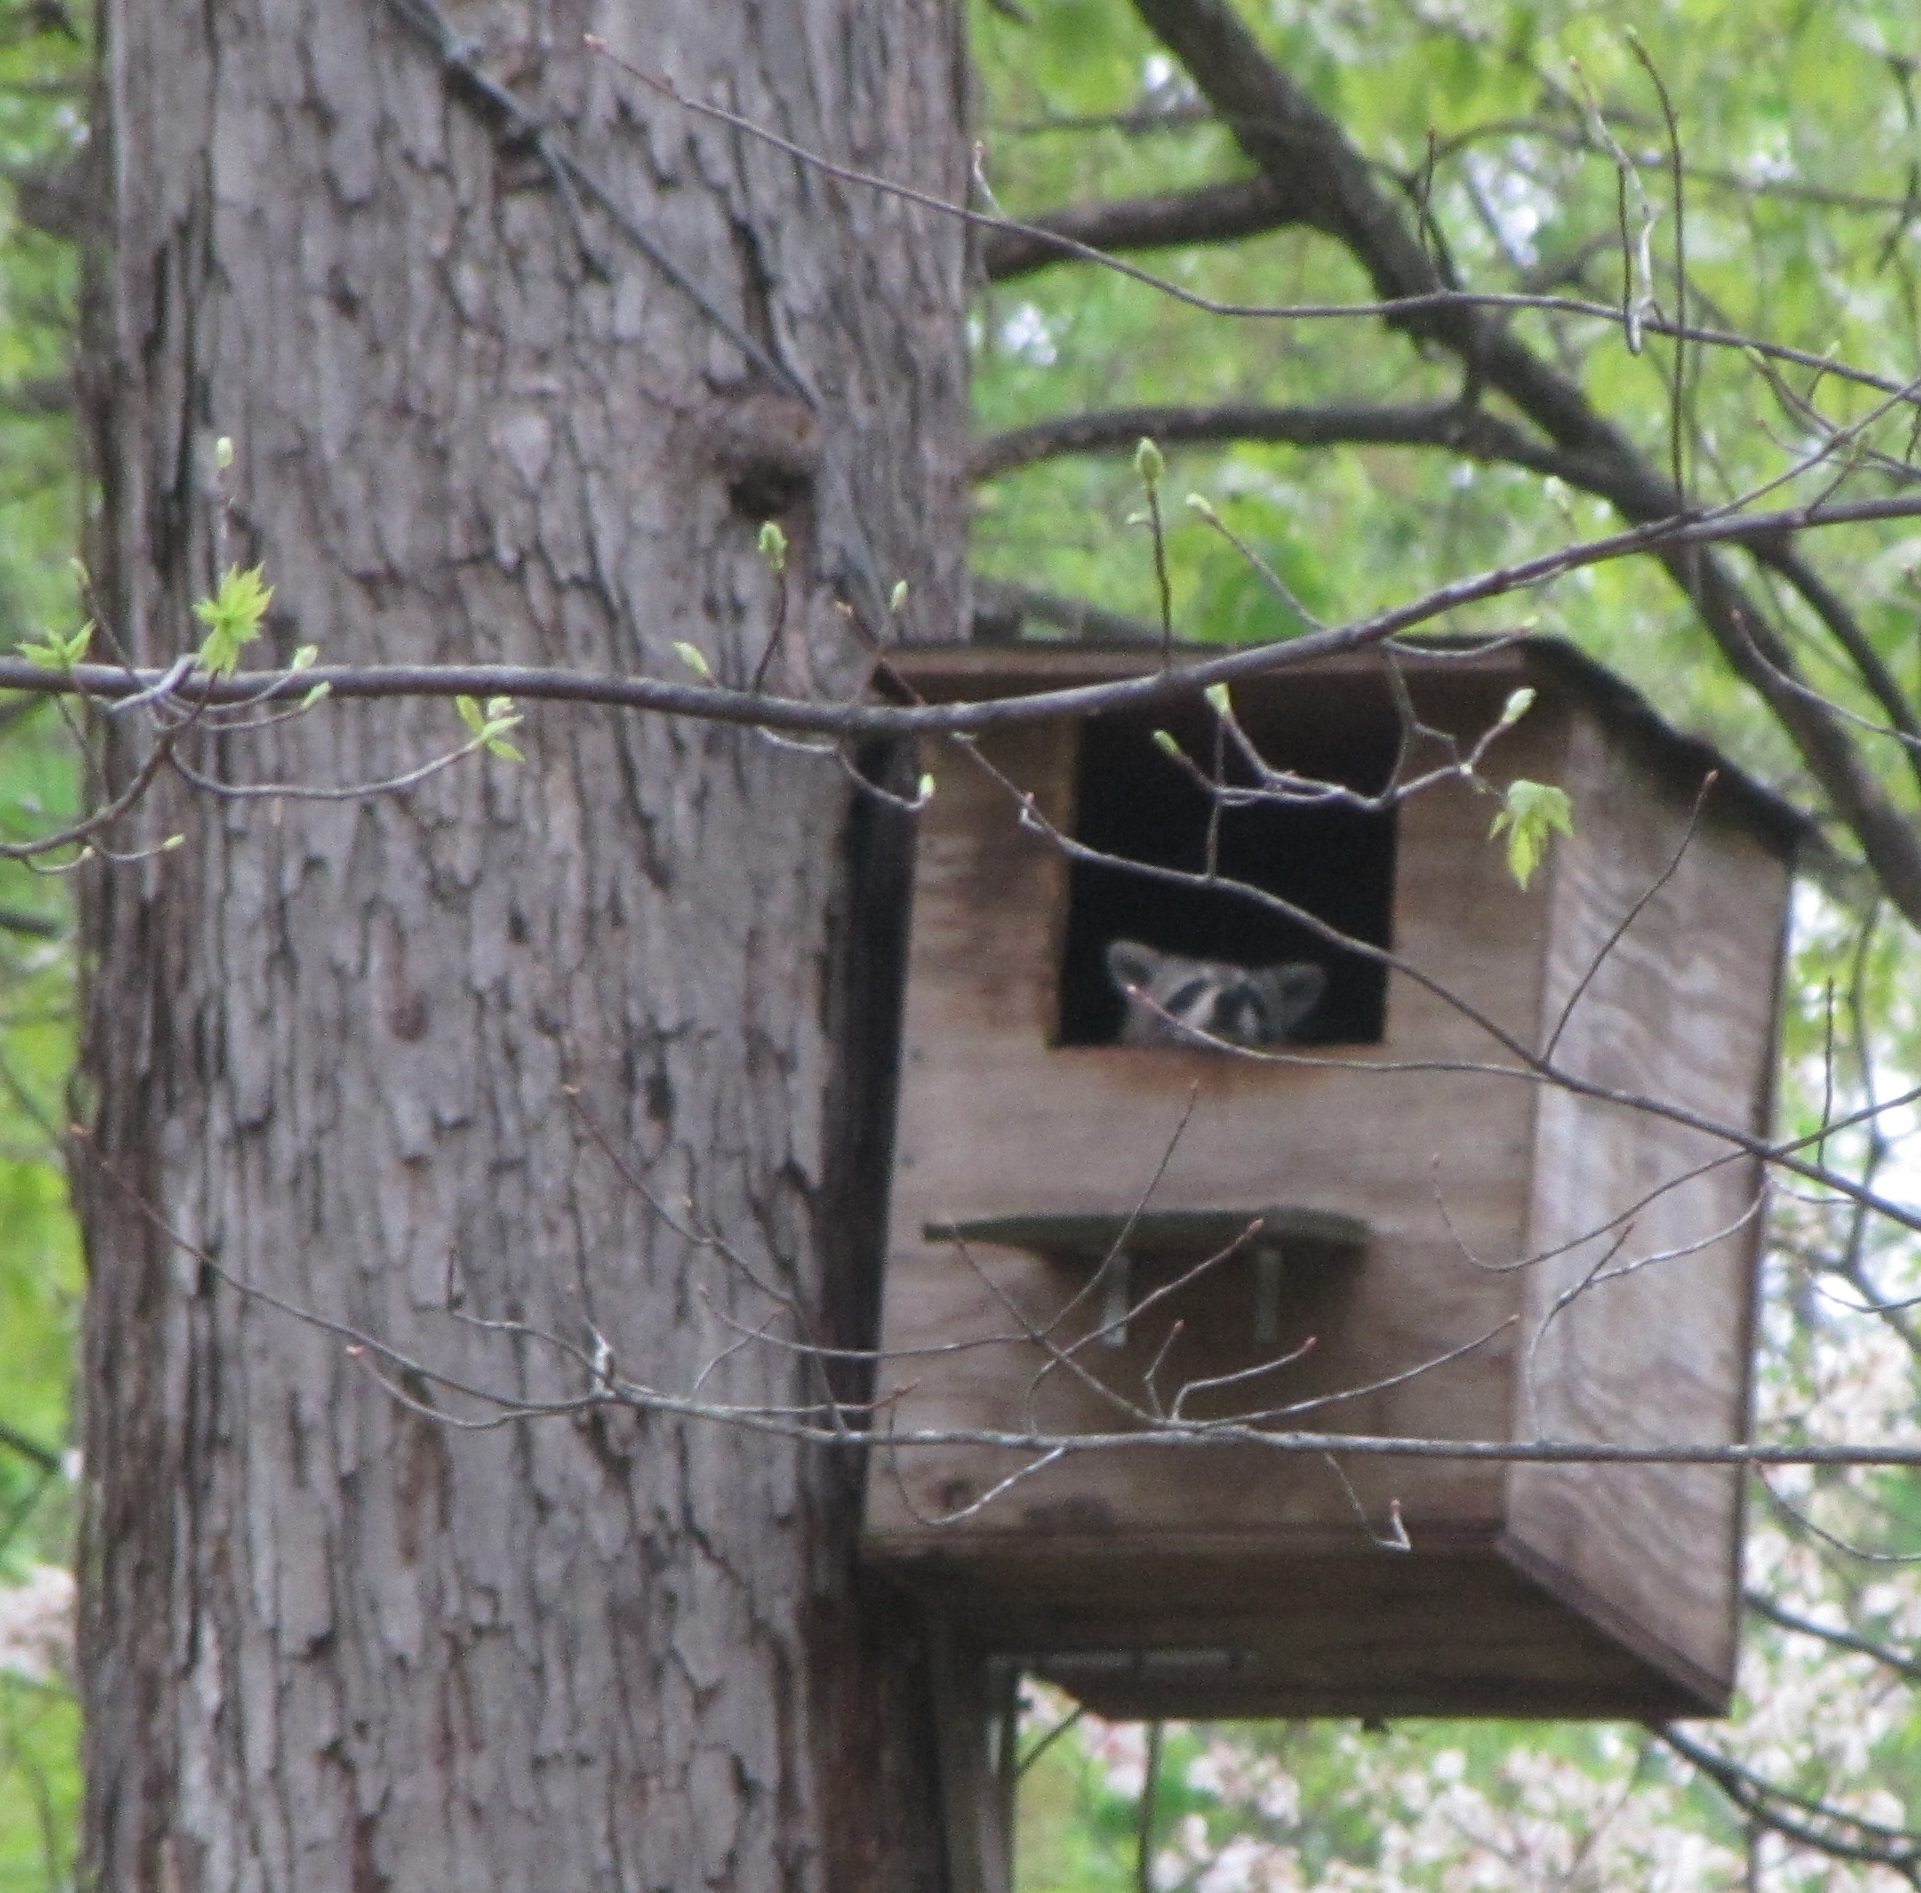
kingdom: Animalia
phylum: Chordata
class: Mammalia
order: Carnivora
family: Procyonidae
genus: Procyon
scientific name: Procyon lotor
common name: Raccoon
